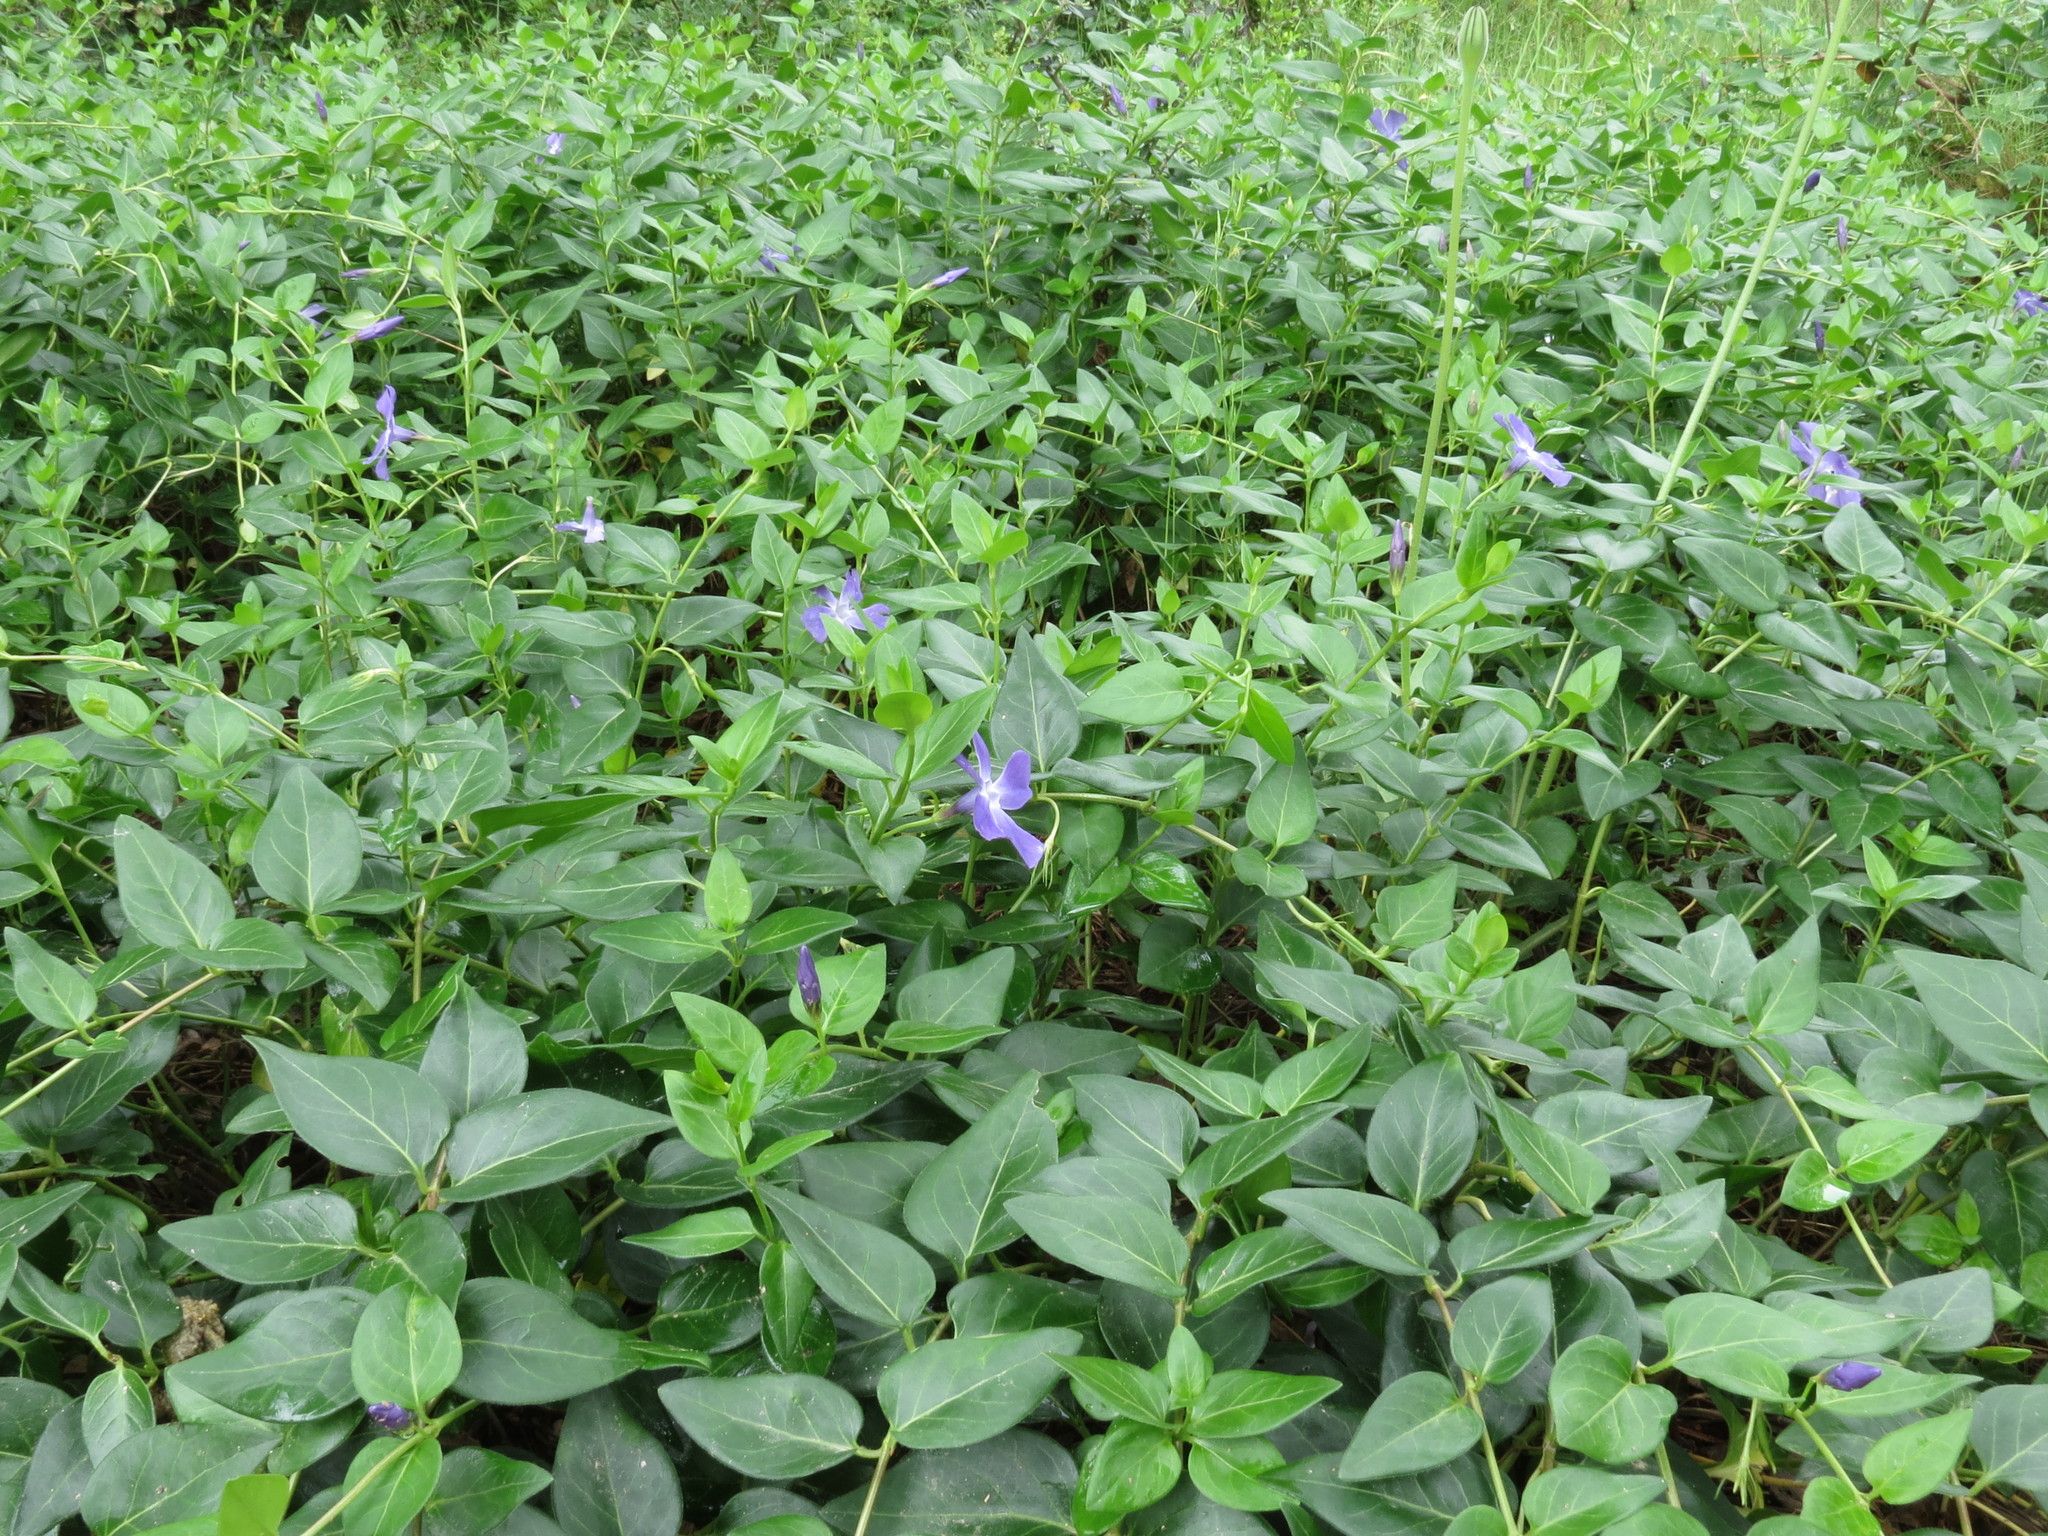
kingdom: Plantae
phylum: Tracheophyta
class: Magnoliopsida
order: Gentianales
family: Apocynaceae
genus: Vinca
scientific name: Vinca major
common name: Greater periwinkle
